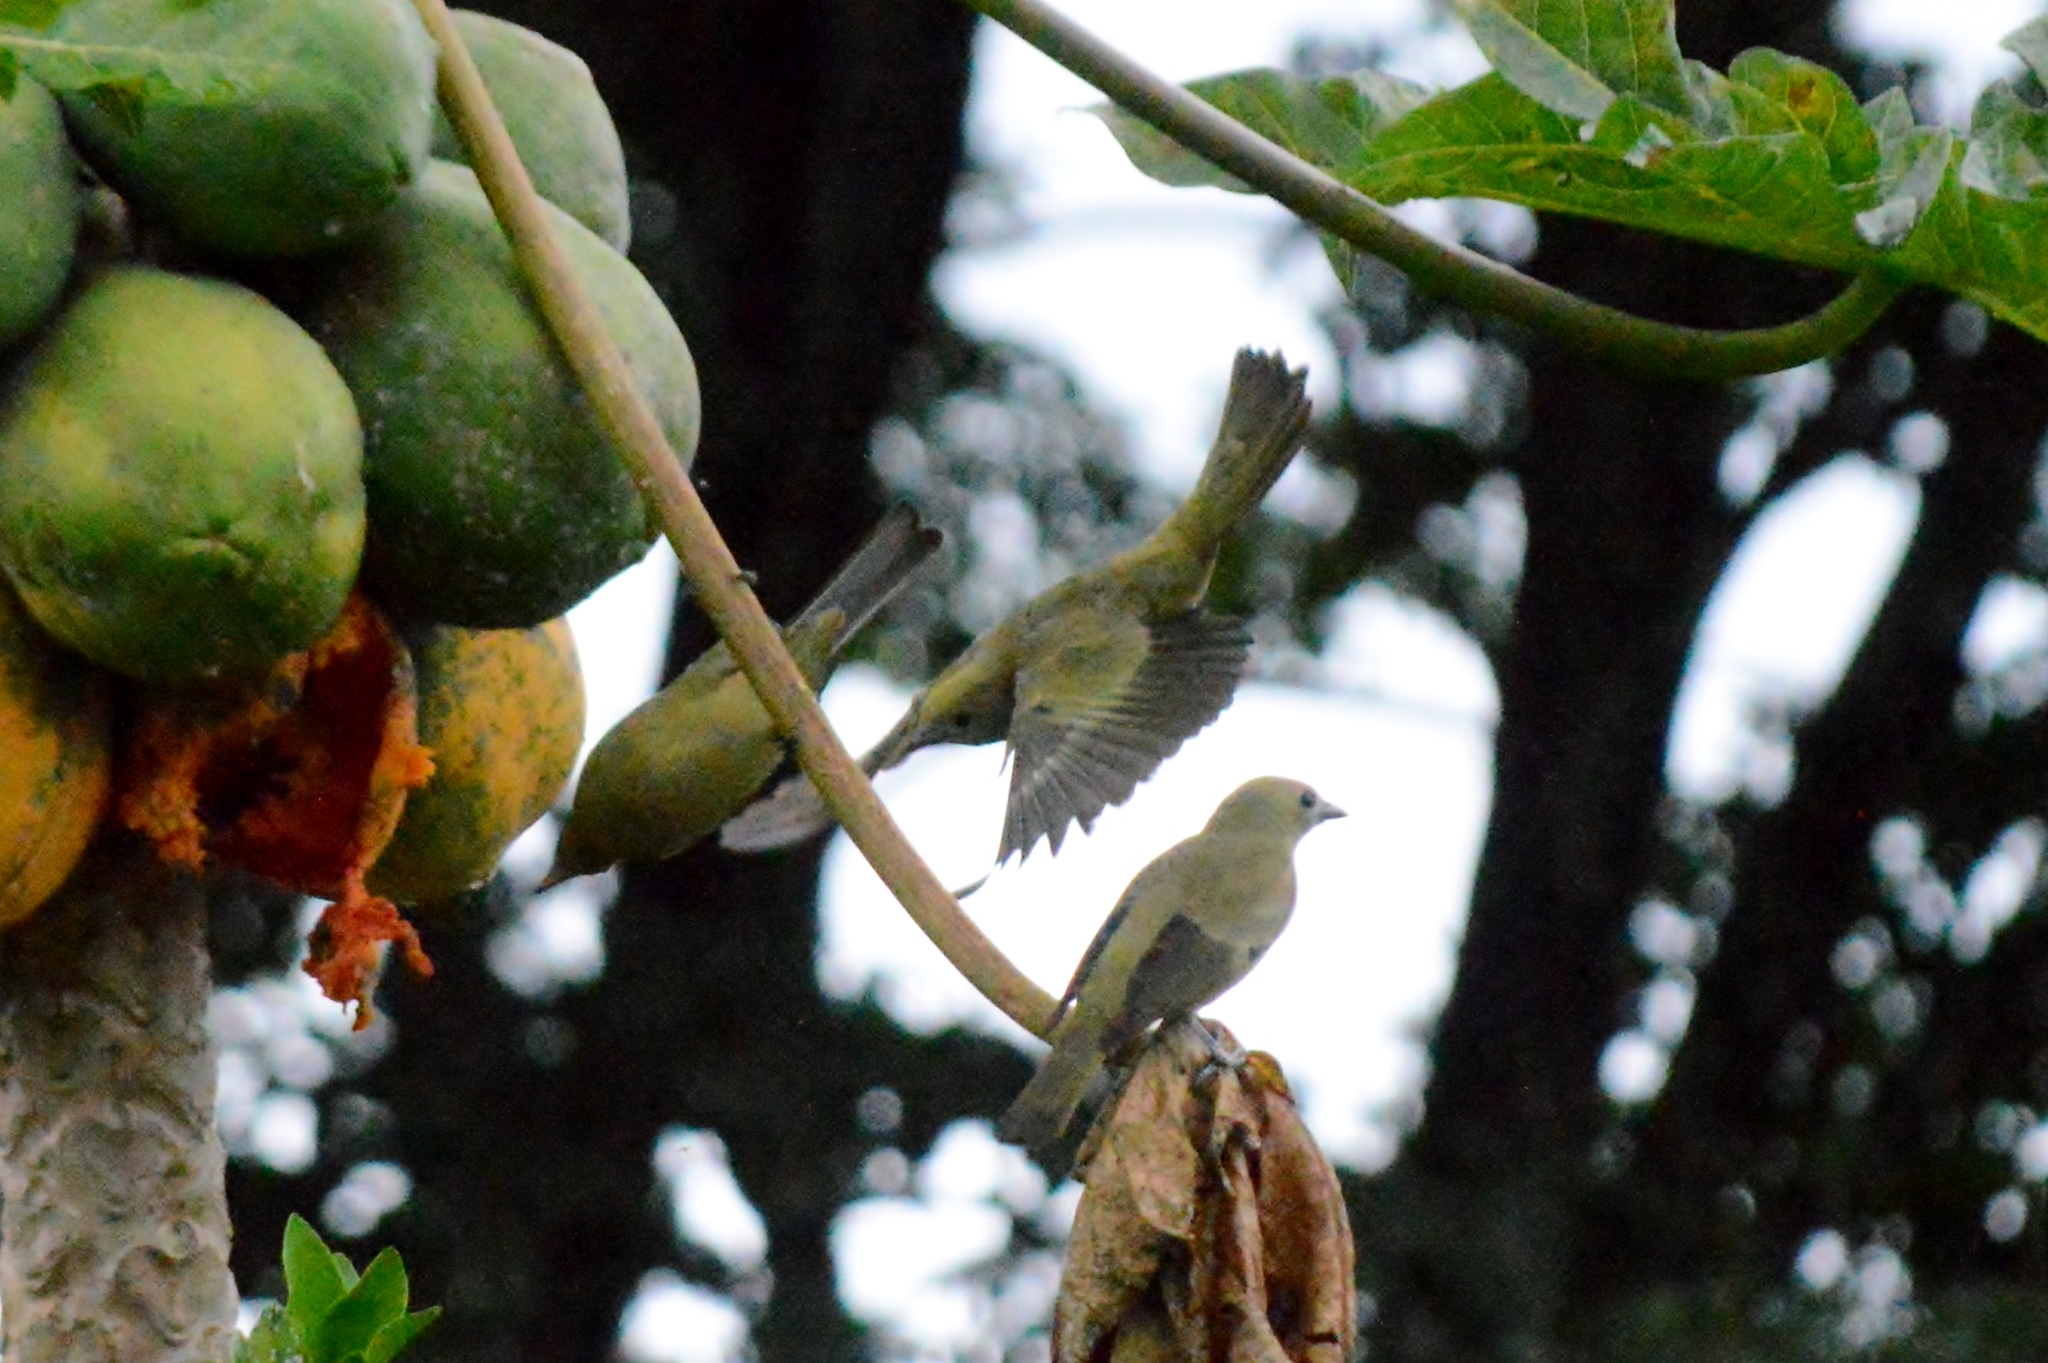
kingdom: Animalia
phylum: Chordata
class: Aves
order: Passeriformes
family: Thraupidae
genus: Thraupis
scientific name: Thraupis palmarum
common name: Palm tanager
